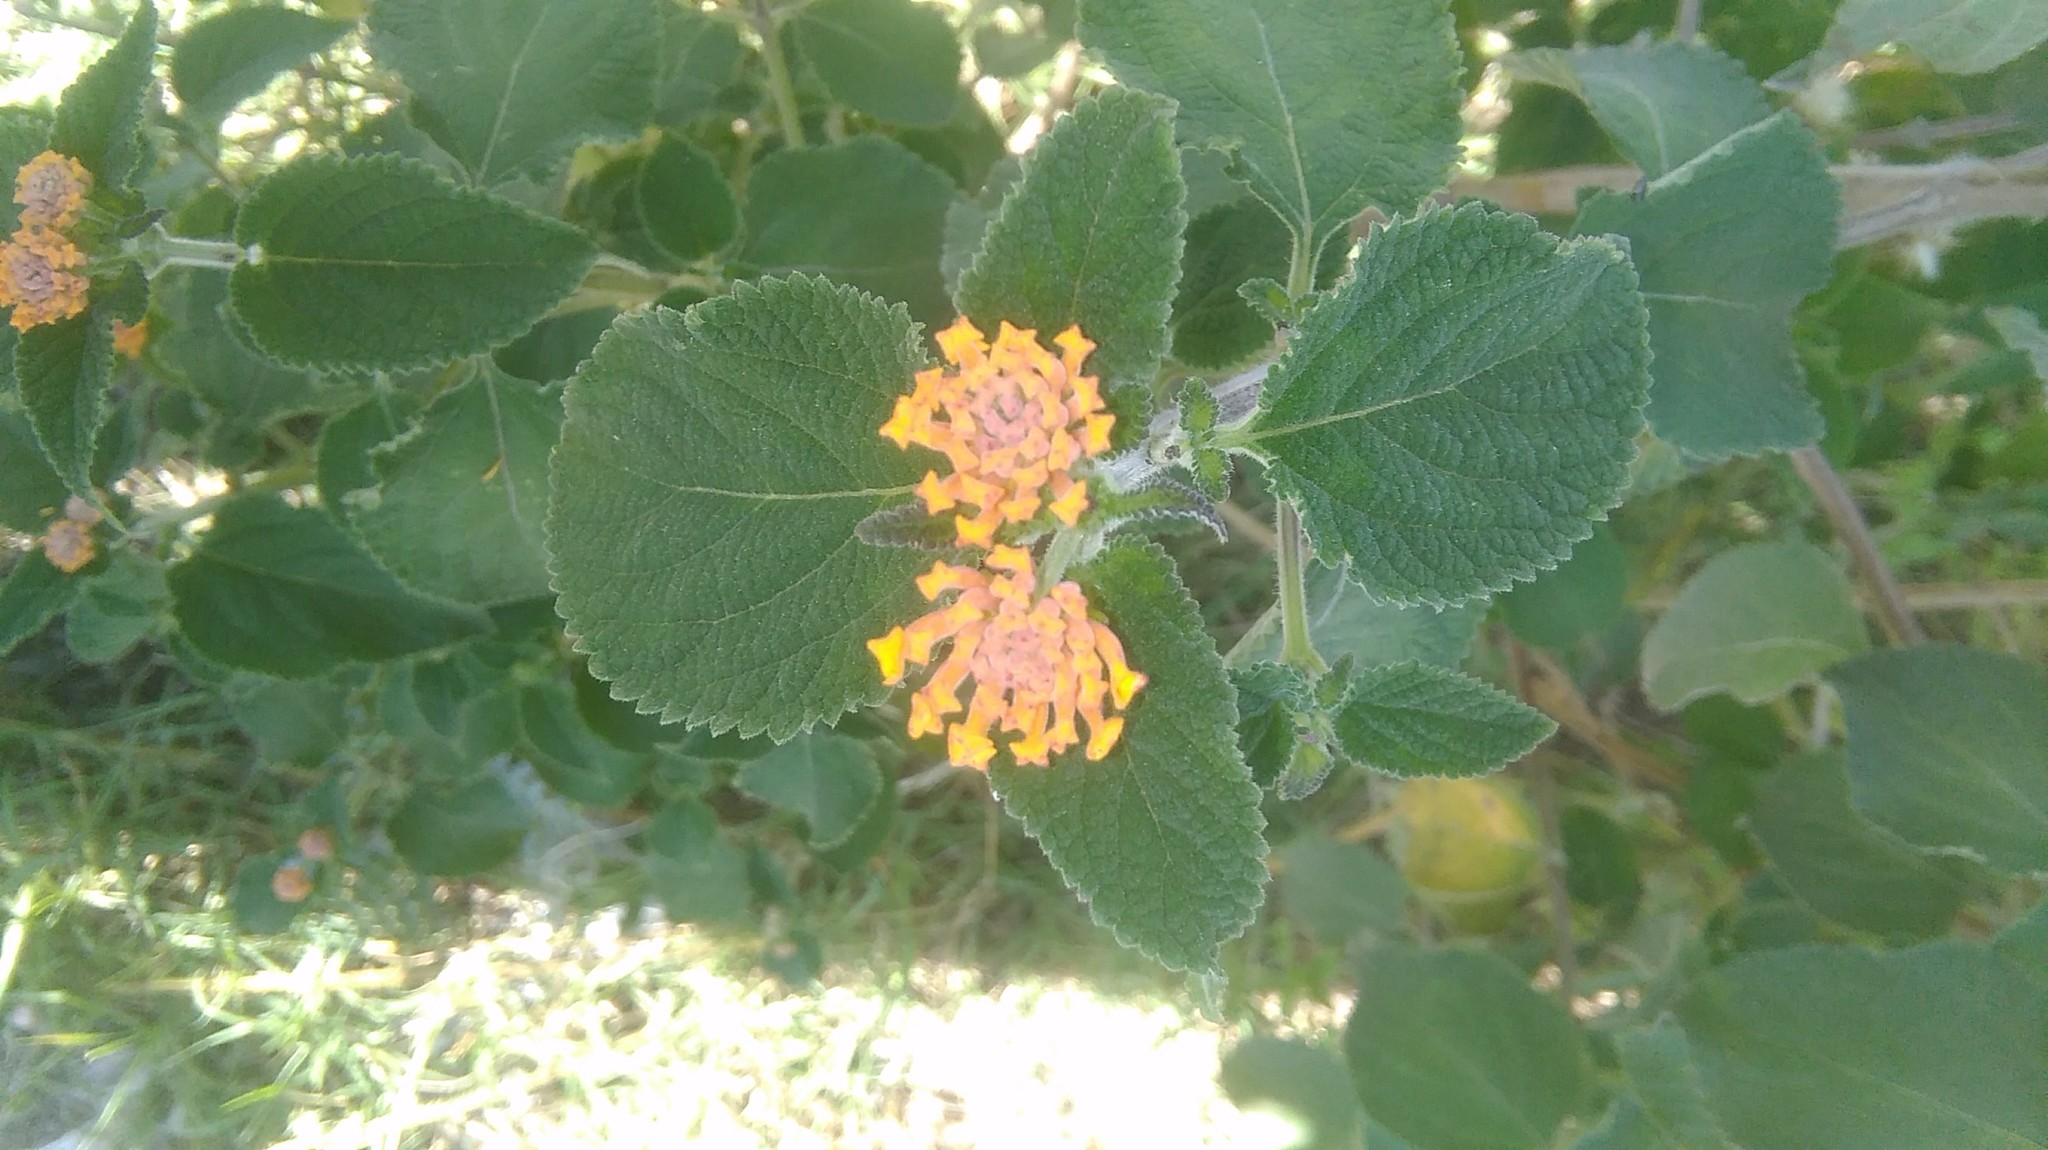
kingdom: Plantae
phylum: Tracheophyta
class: Magnoliopsida
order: Lamiales
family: Verbenaceae
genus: Lantana
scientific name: Lantana camara
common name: Lantana
